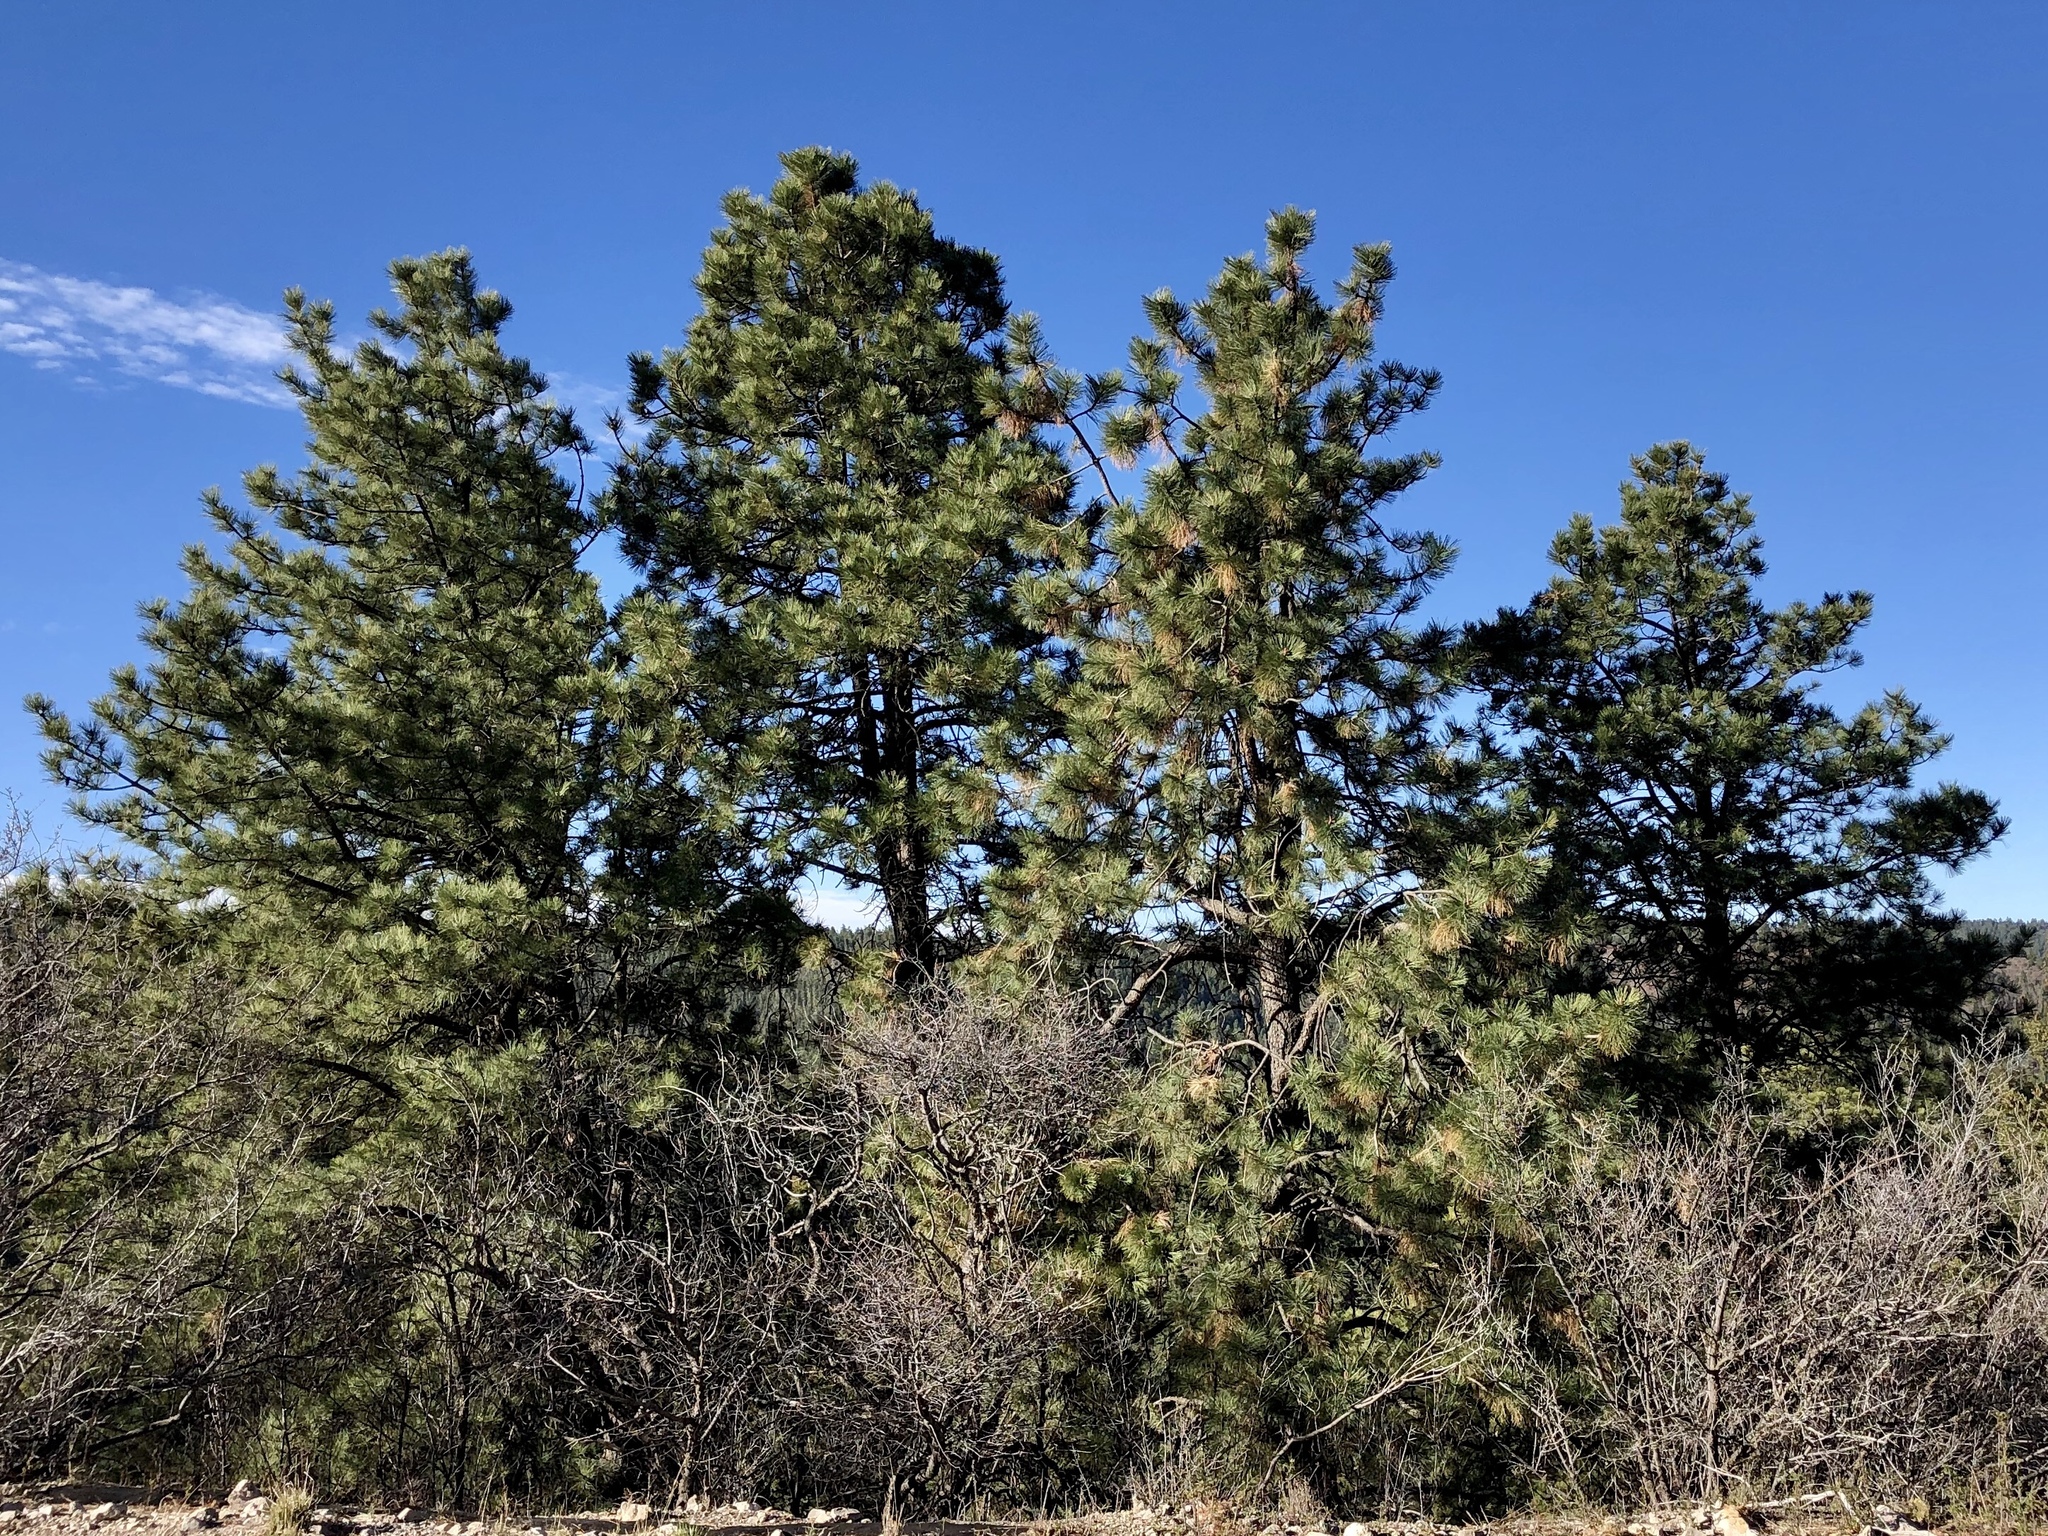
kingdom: Plantae
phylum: Tracheophyta
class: Pinopsida
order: Pinales
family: Pinaceae
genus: Pinus
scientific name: Pinus ponderosa
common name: Western yellow-pine
